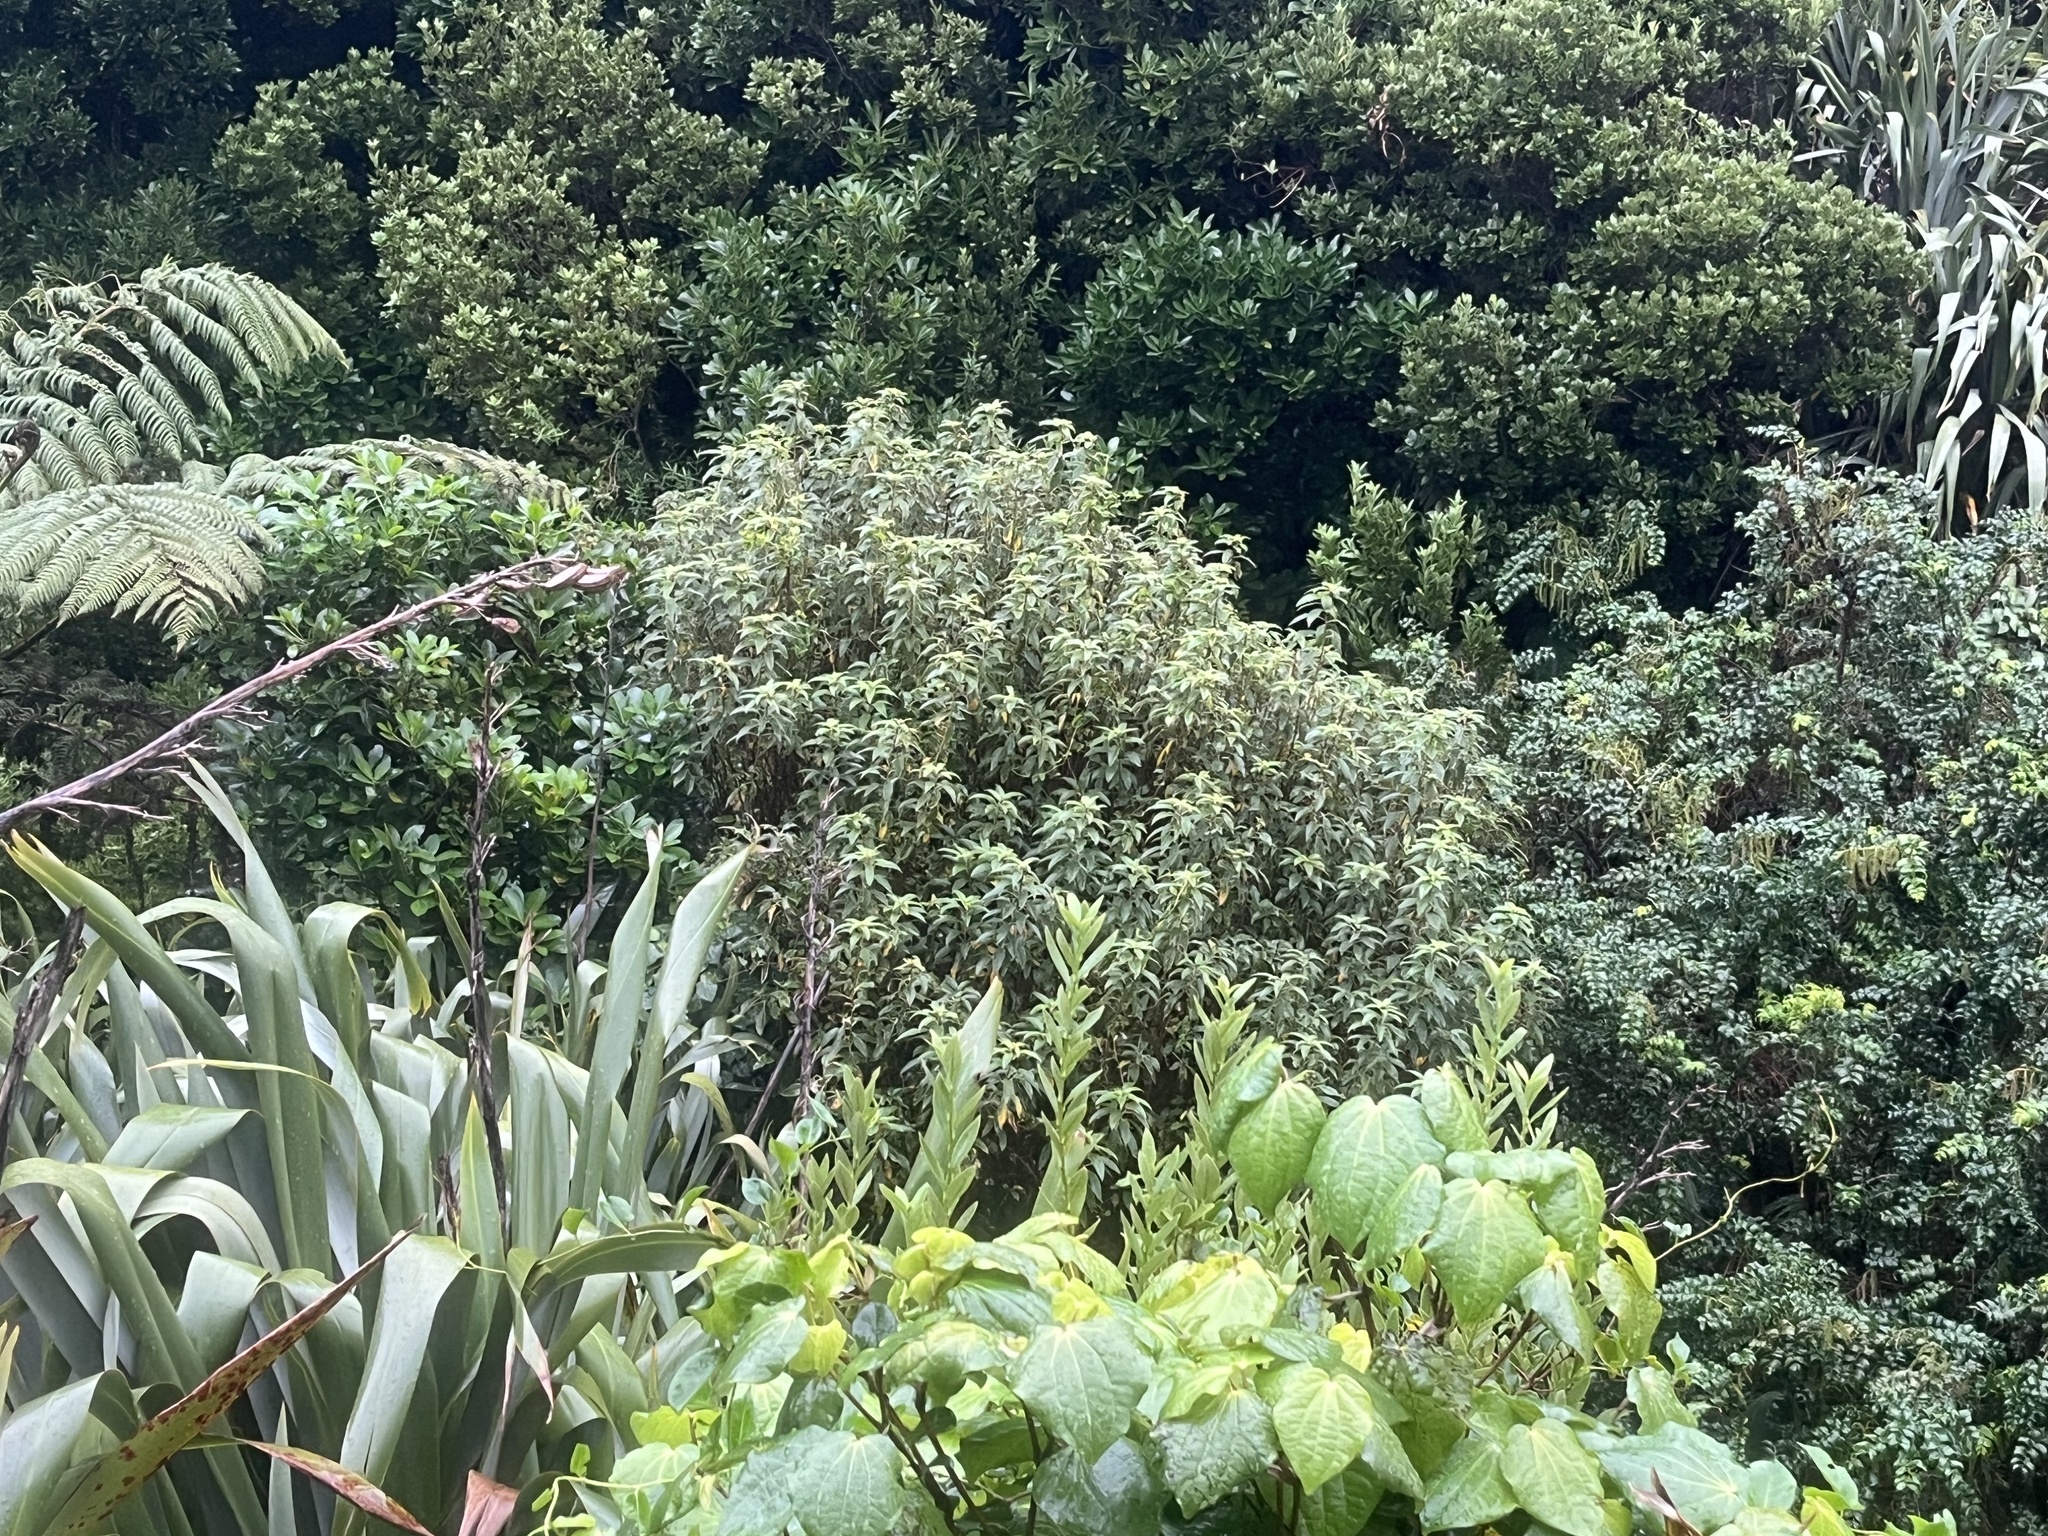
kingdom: Plantae
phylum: Tracheophyta
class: Magnoliopsida
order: Myrtales
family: Onagraceae
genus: Fuchsia
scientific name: Fuchsia excorticata
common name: Tree fuchsia
